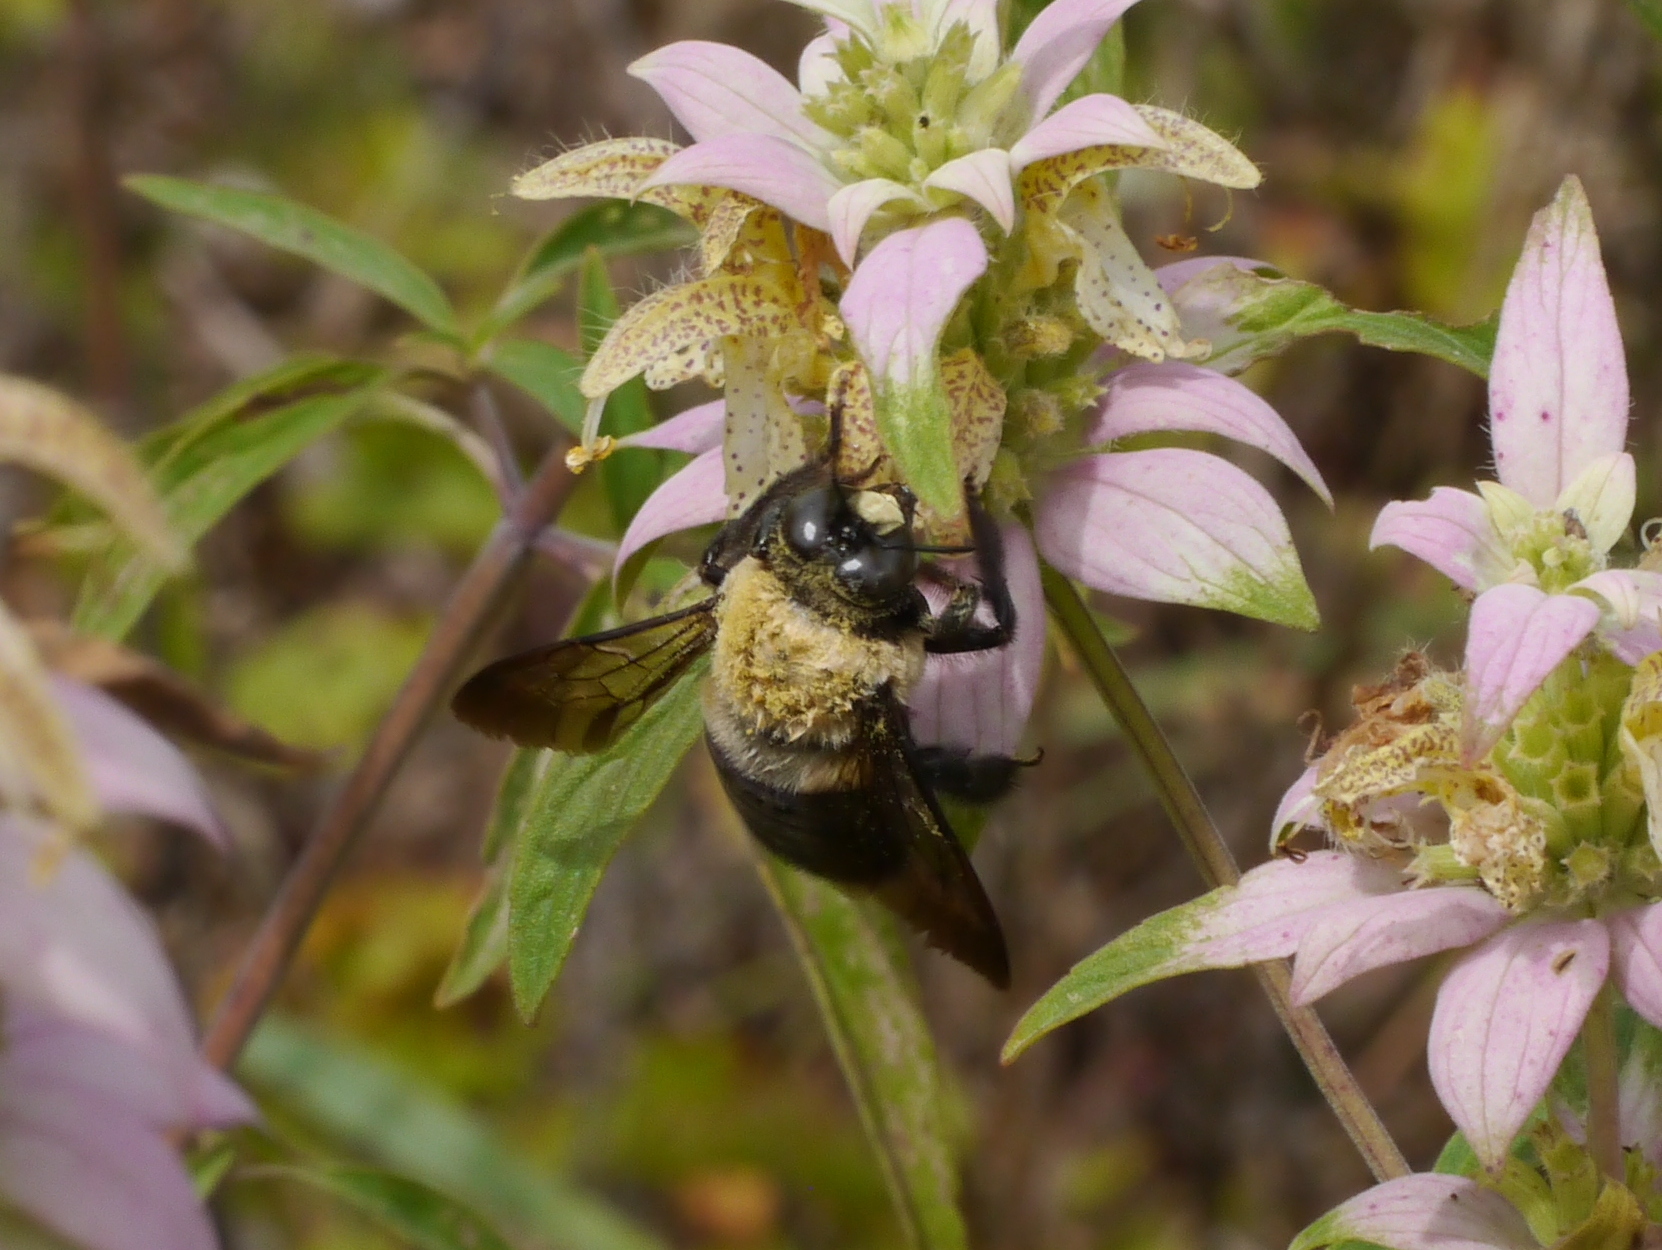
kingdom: Animalia
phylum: Arthropoda
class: Insecta
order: Hymenoptera
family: Apidae
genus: Xylocopa
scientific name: Xylocopa virginica
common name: Carpenter bee
